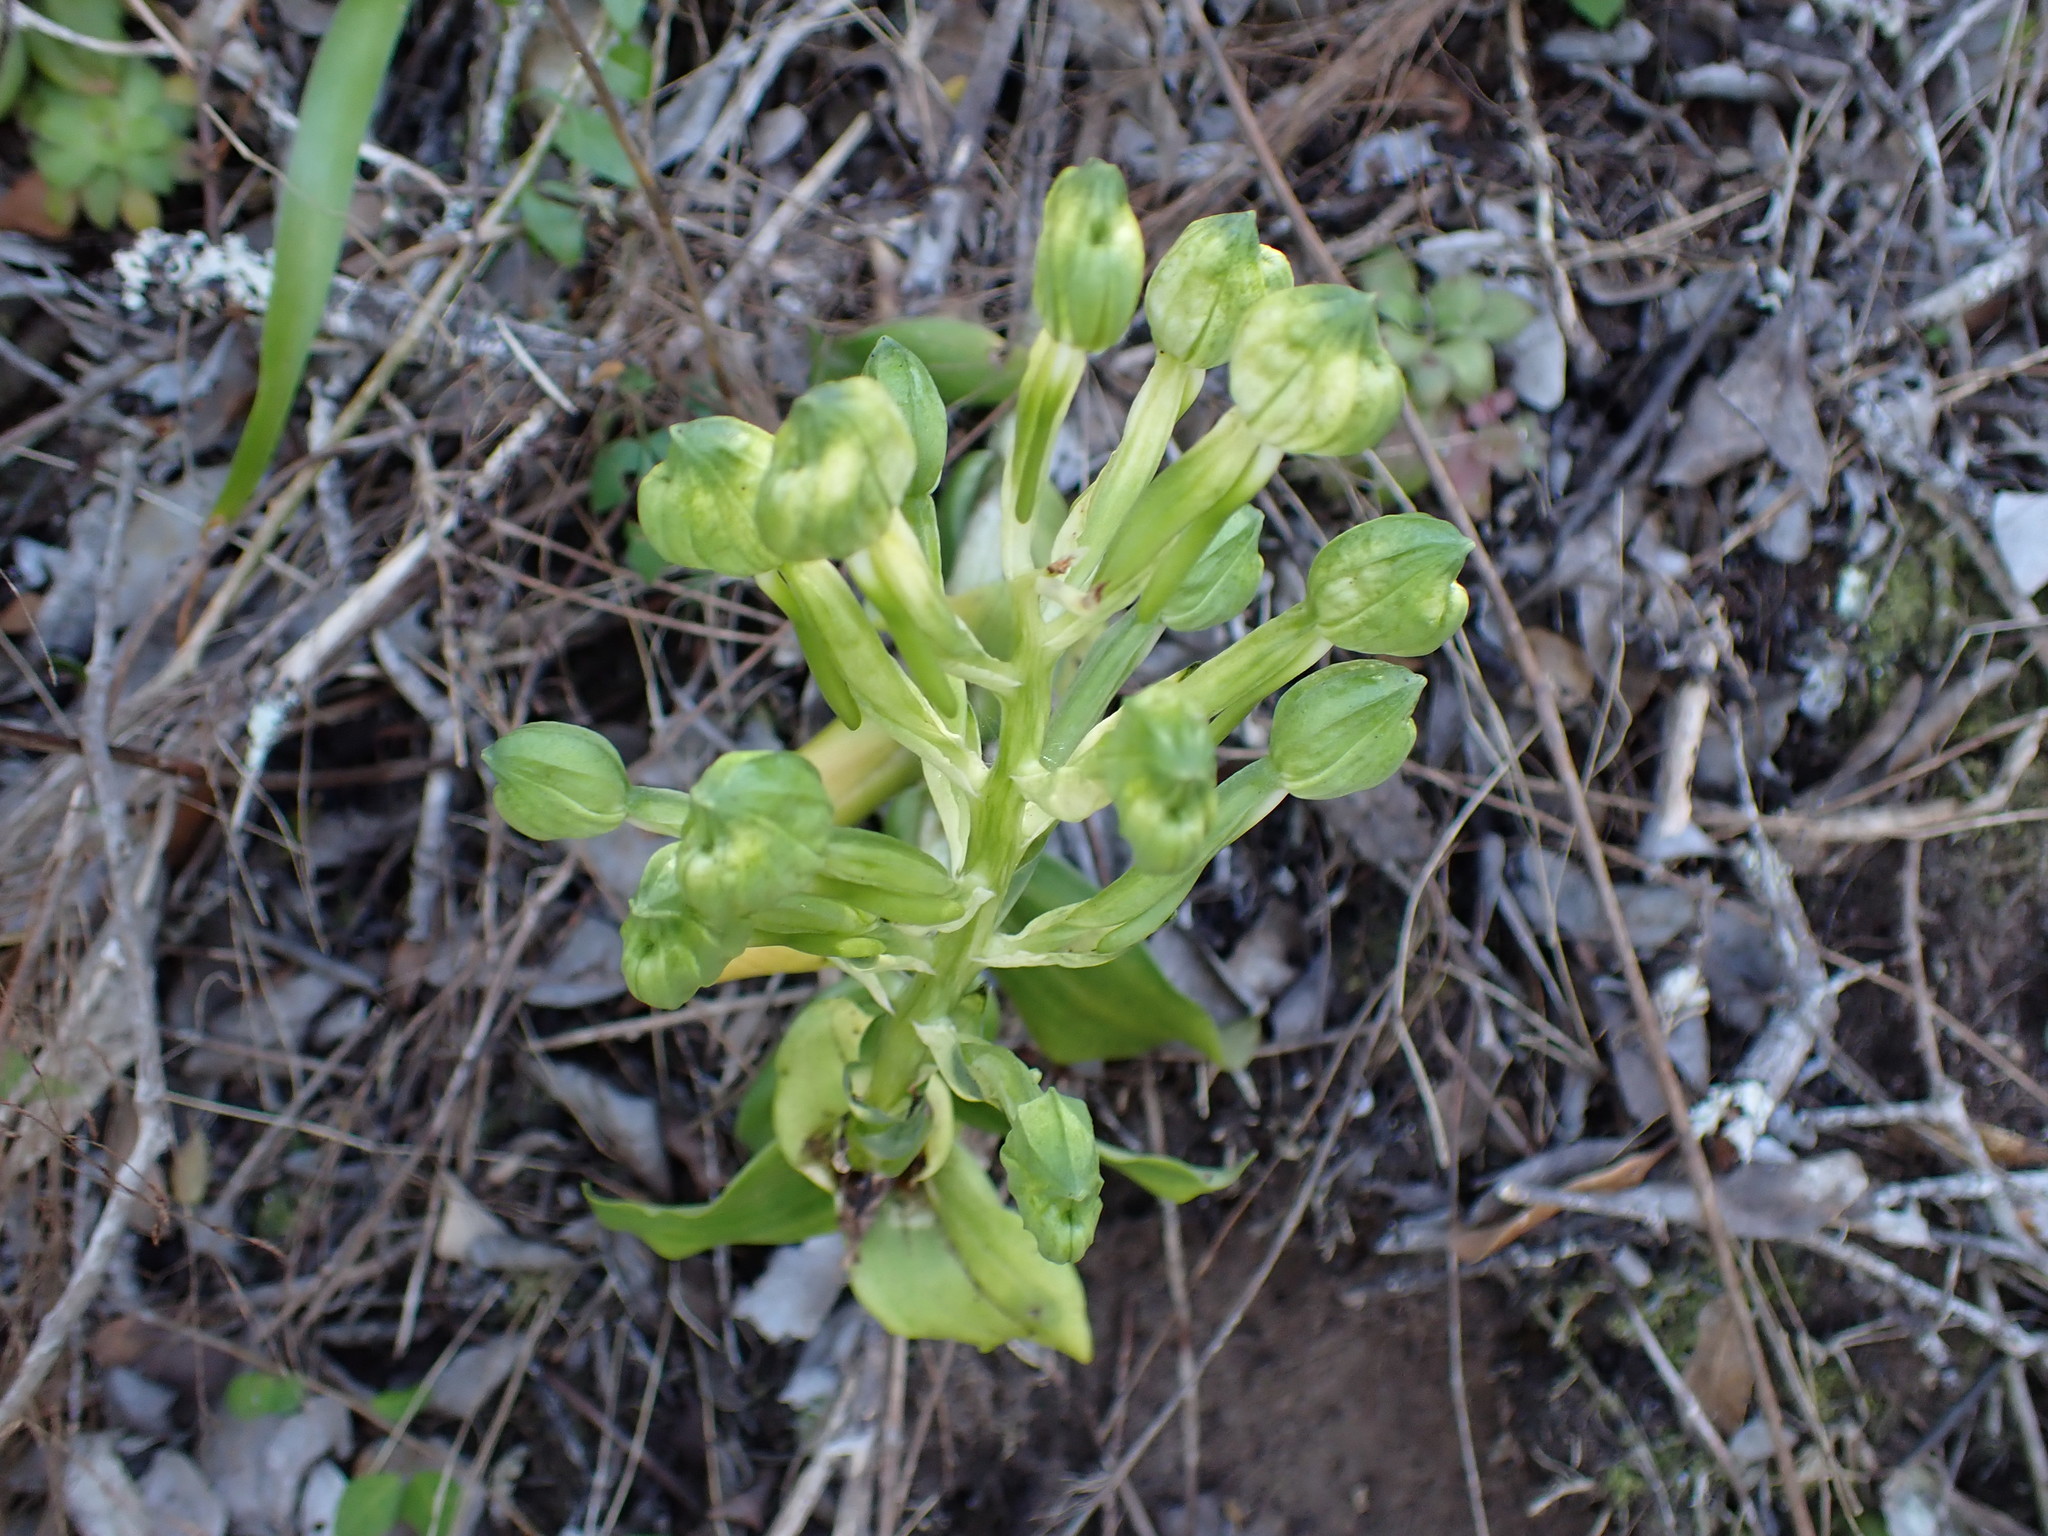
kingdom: Plantae
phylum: Tracheophyta
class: Liliopsida
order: Asparagales
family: Orchidaceae
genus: Bonatea
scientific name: Bonatea speciosa
